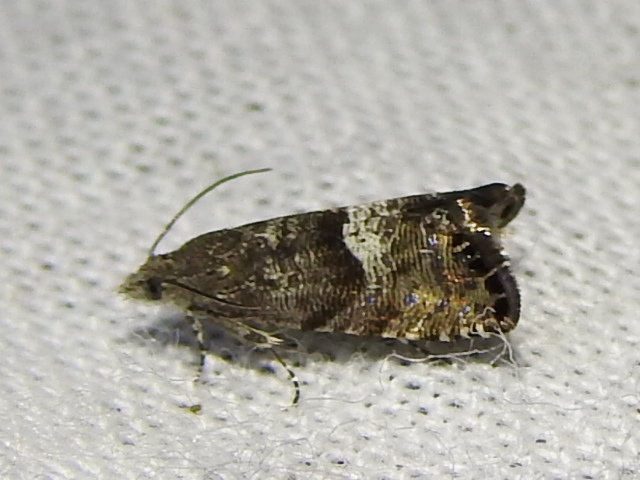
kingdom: Animalia
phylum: Arthropoda
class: Insecta
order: Lepidoptera
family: Tortricidae
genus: Sereda
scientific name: Sereda tautana
